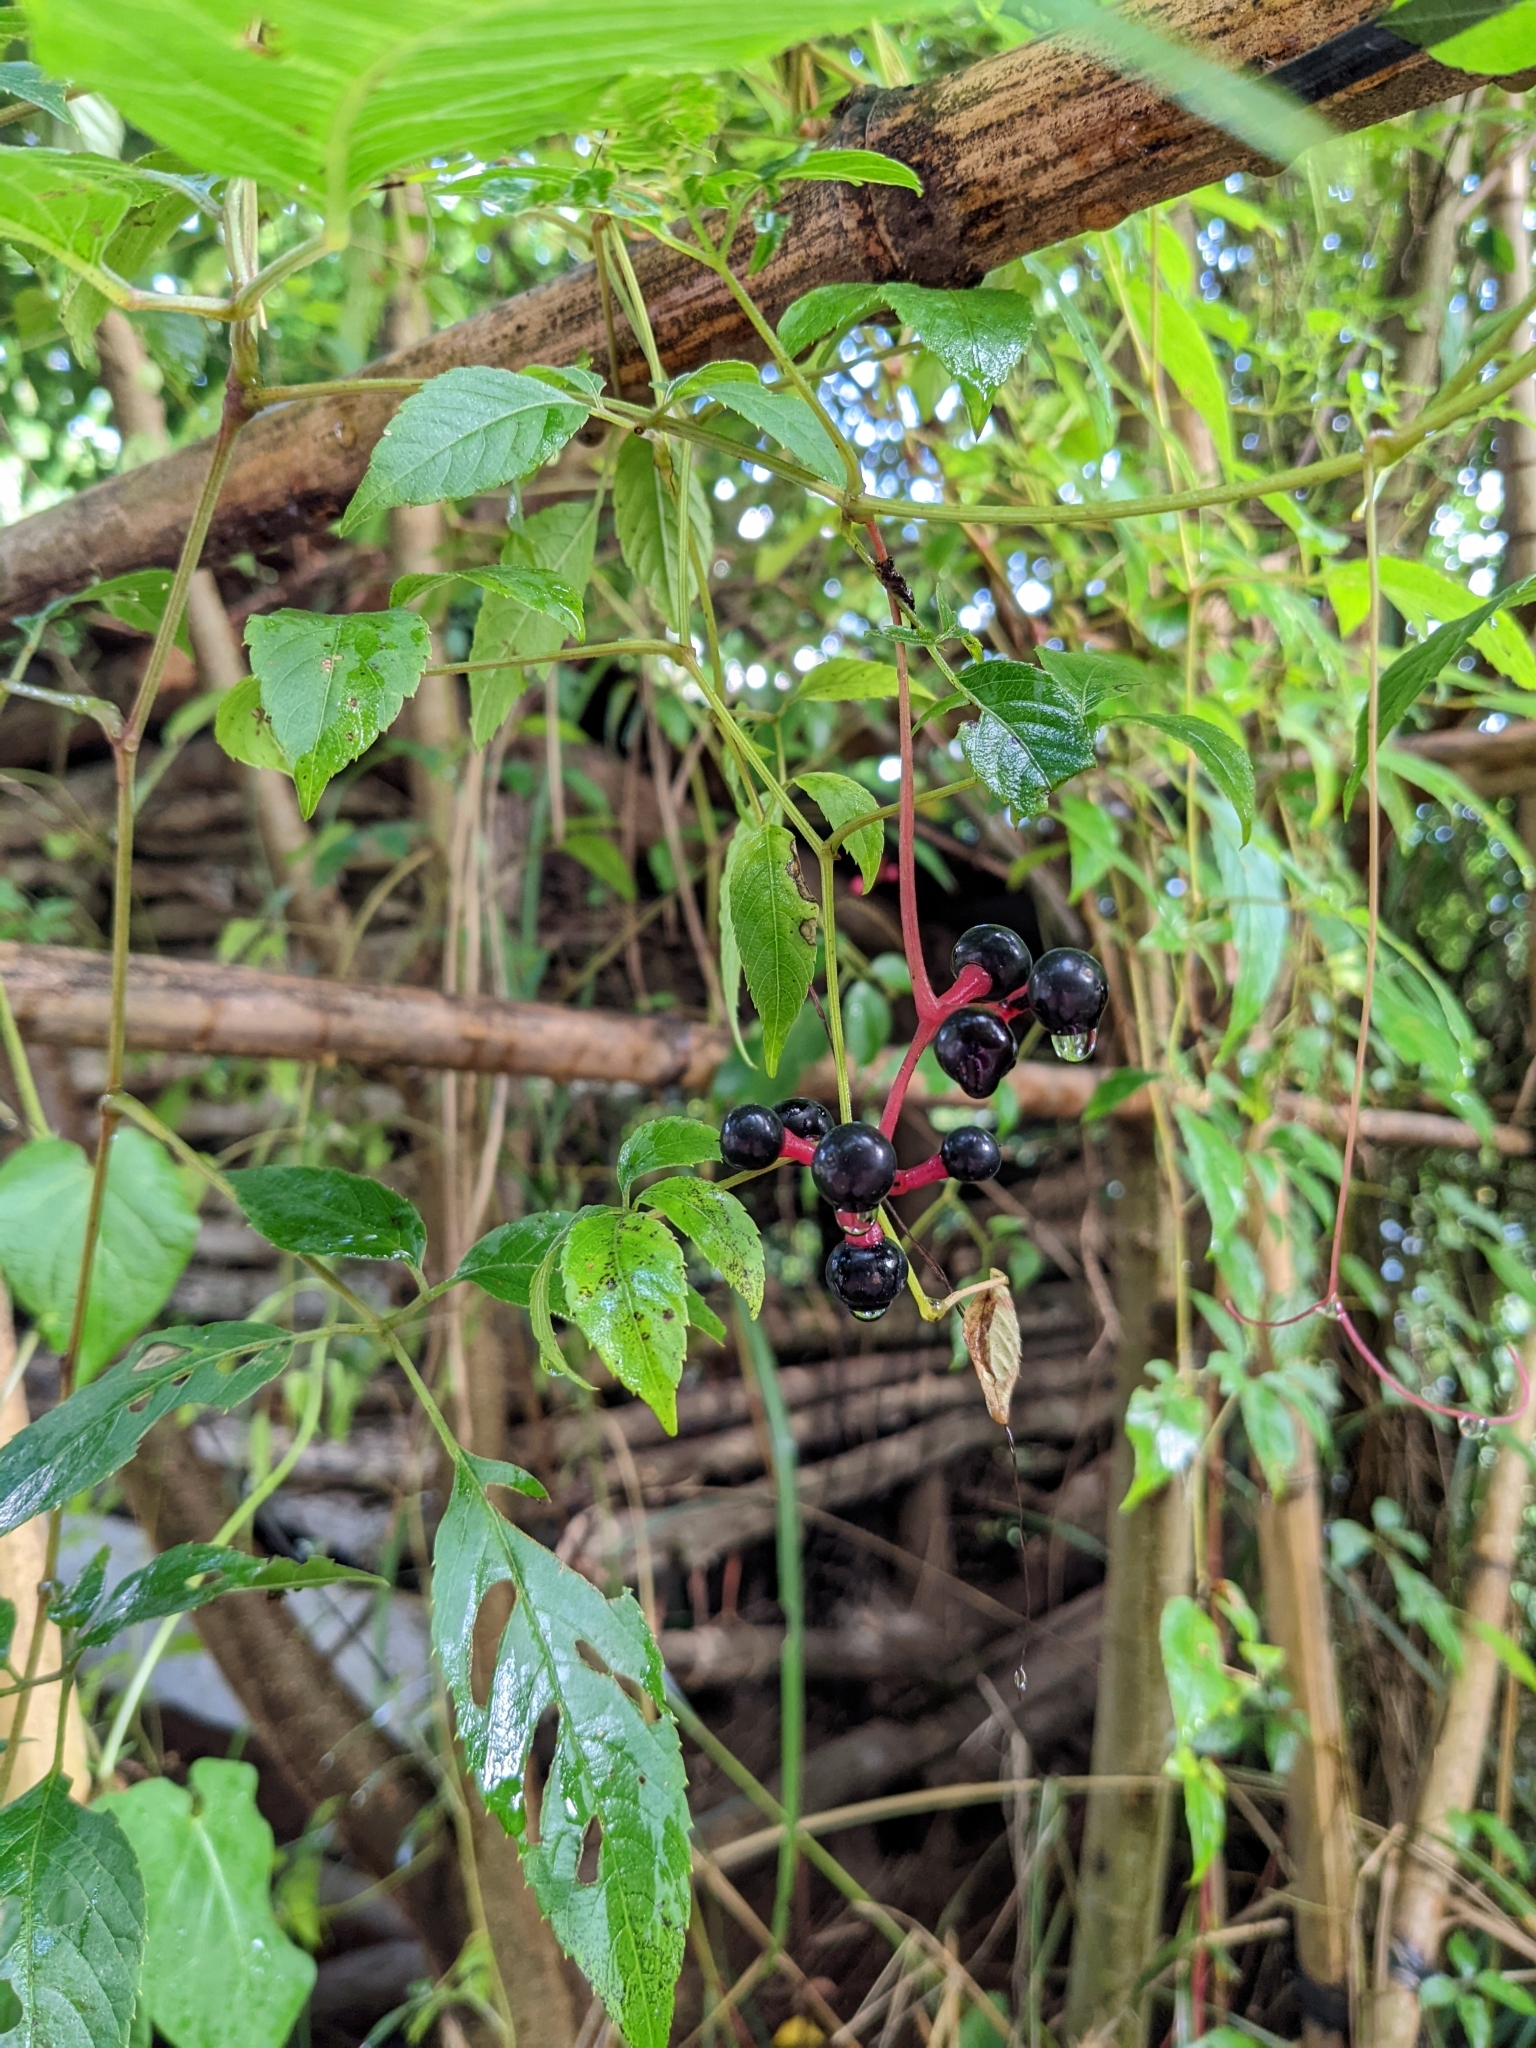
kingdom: Plantae
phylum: Tracheophyta
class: Magnoliopsida
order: Vitales
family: Vitaceae
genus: Pseudocayratia
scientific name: Pseudocayratia pengiana
